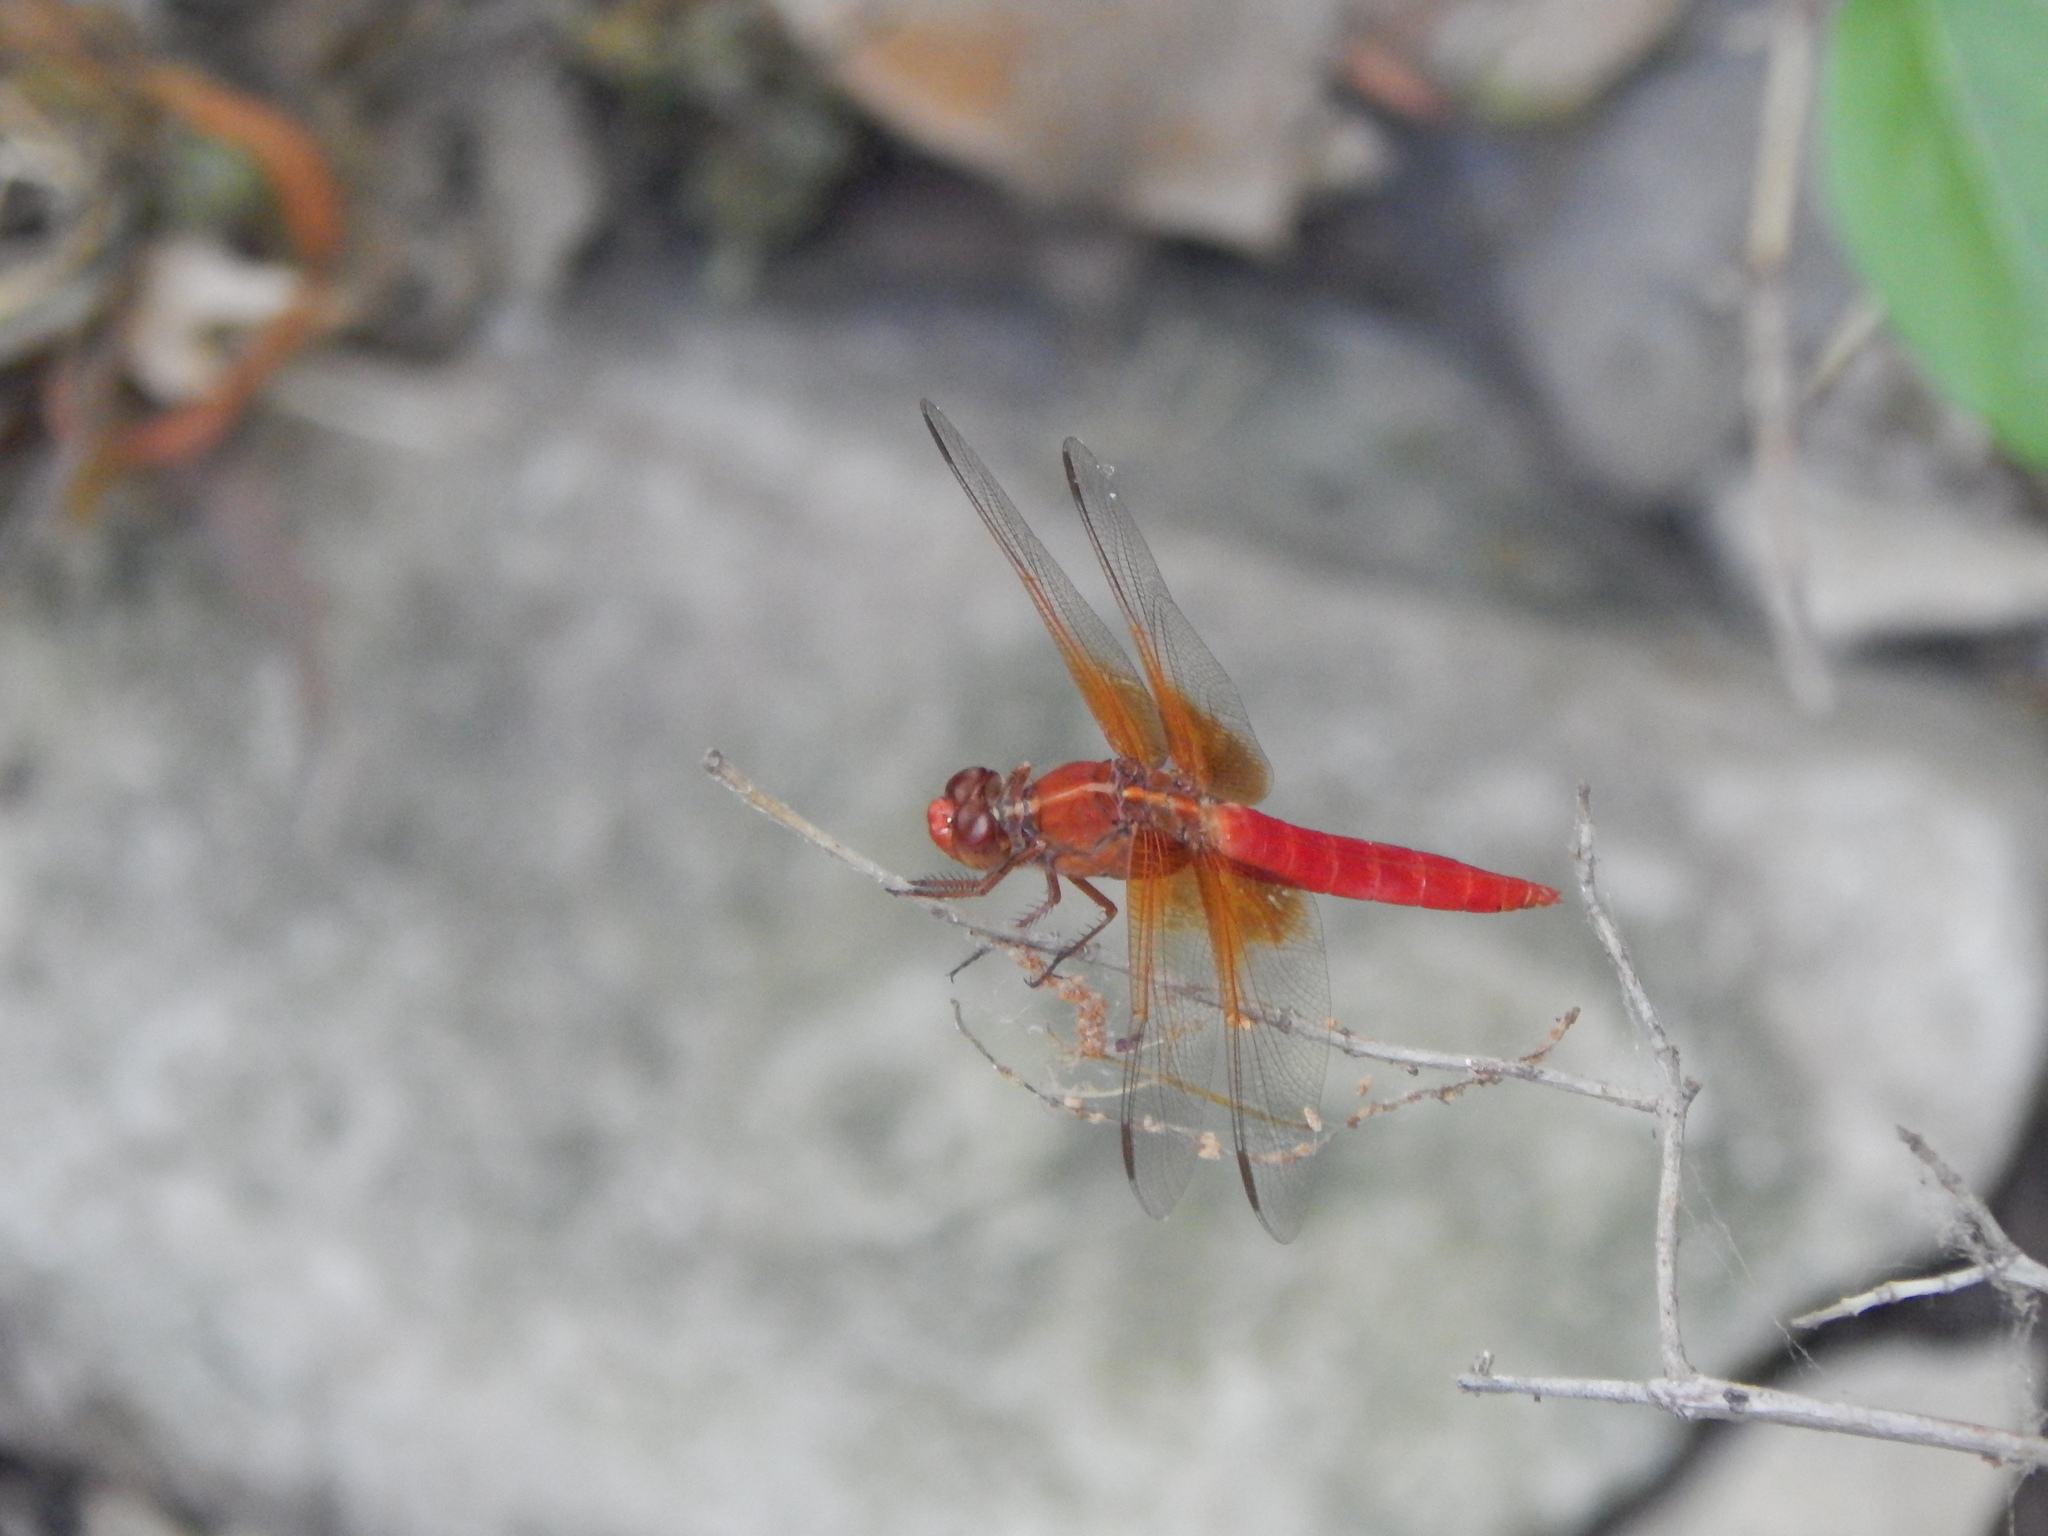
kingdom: Animalia
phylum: Arthropoda
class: Insecta
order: Odonata
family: Libellulidae
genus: Libellula
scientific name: Libellula croceipennis
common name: Neon skimmer
